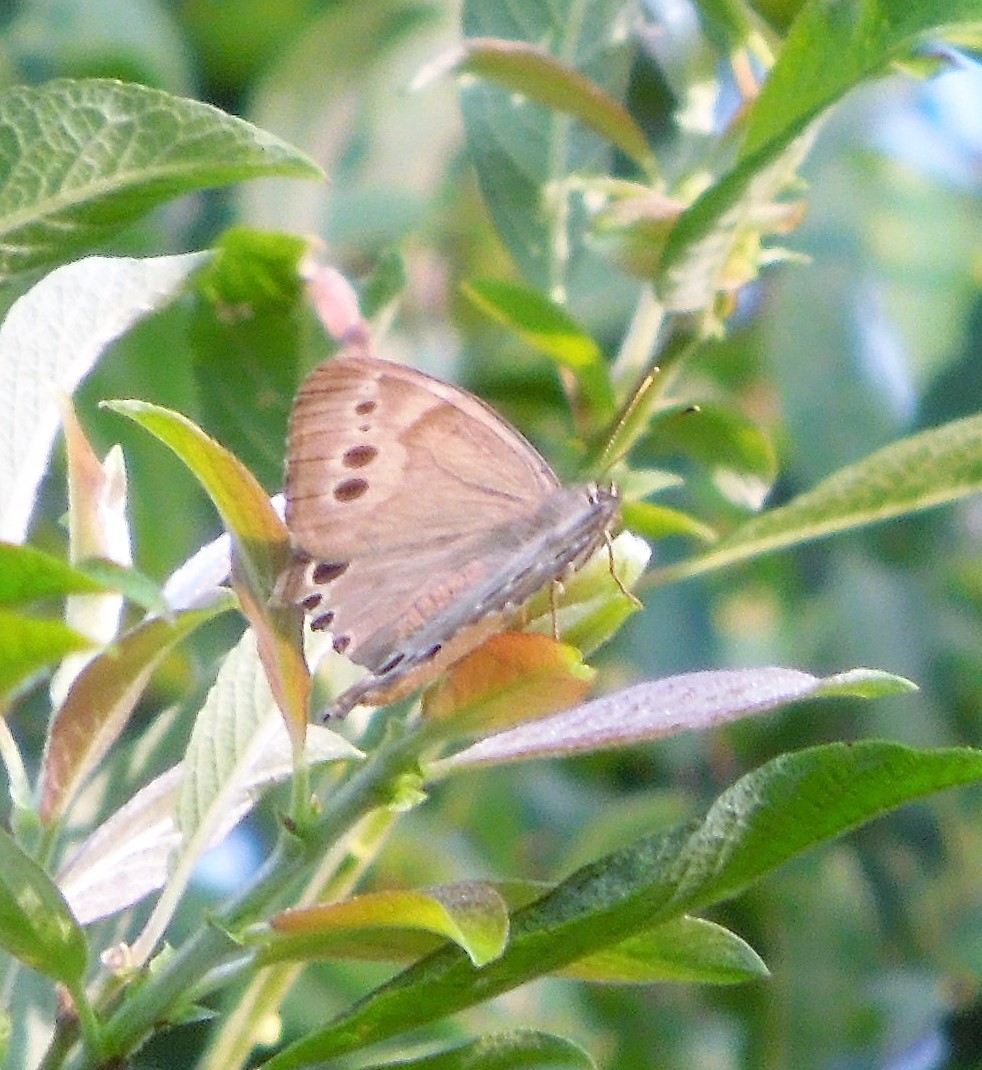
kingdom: Animalia
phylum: Arthropoda
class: Insecta
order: Lepidoptera
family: Nymphalidae
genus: Lethe
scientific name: Lethe anthedon
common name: Northern pearly-eye
